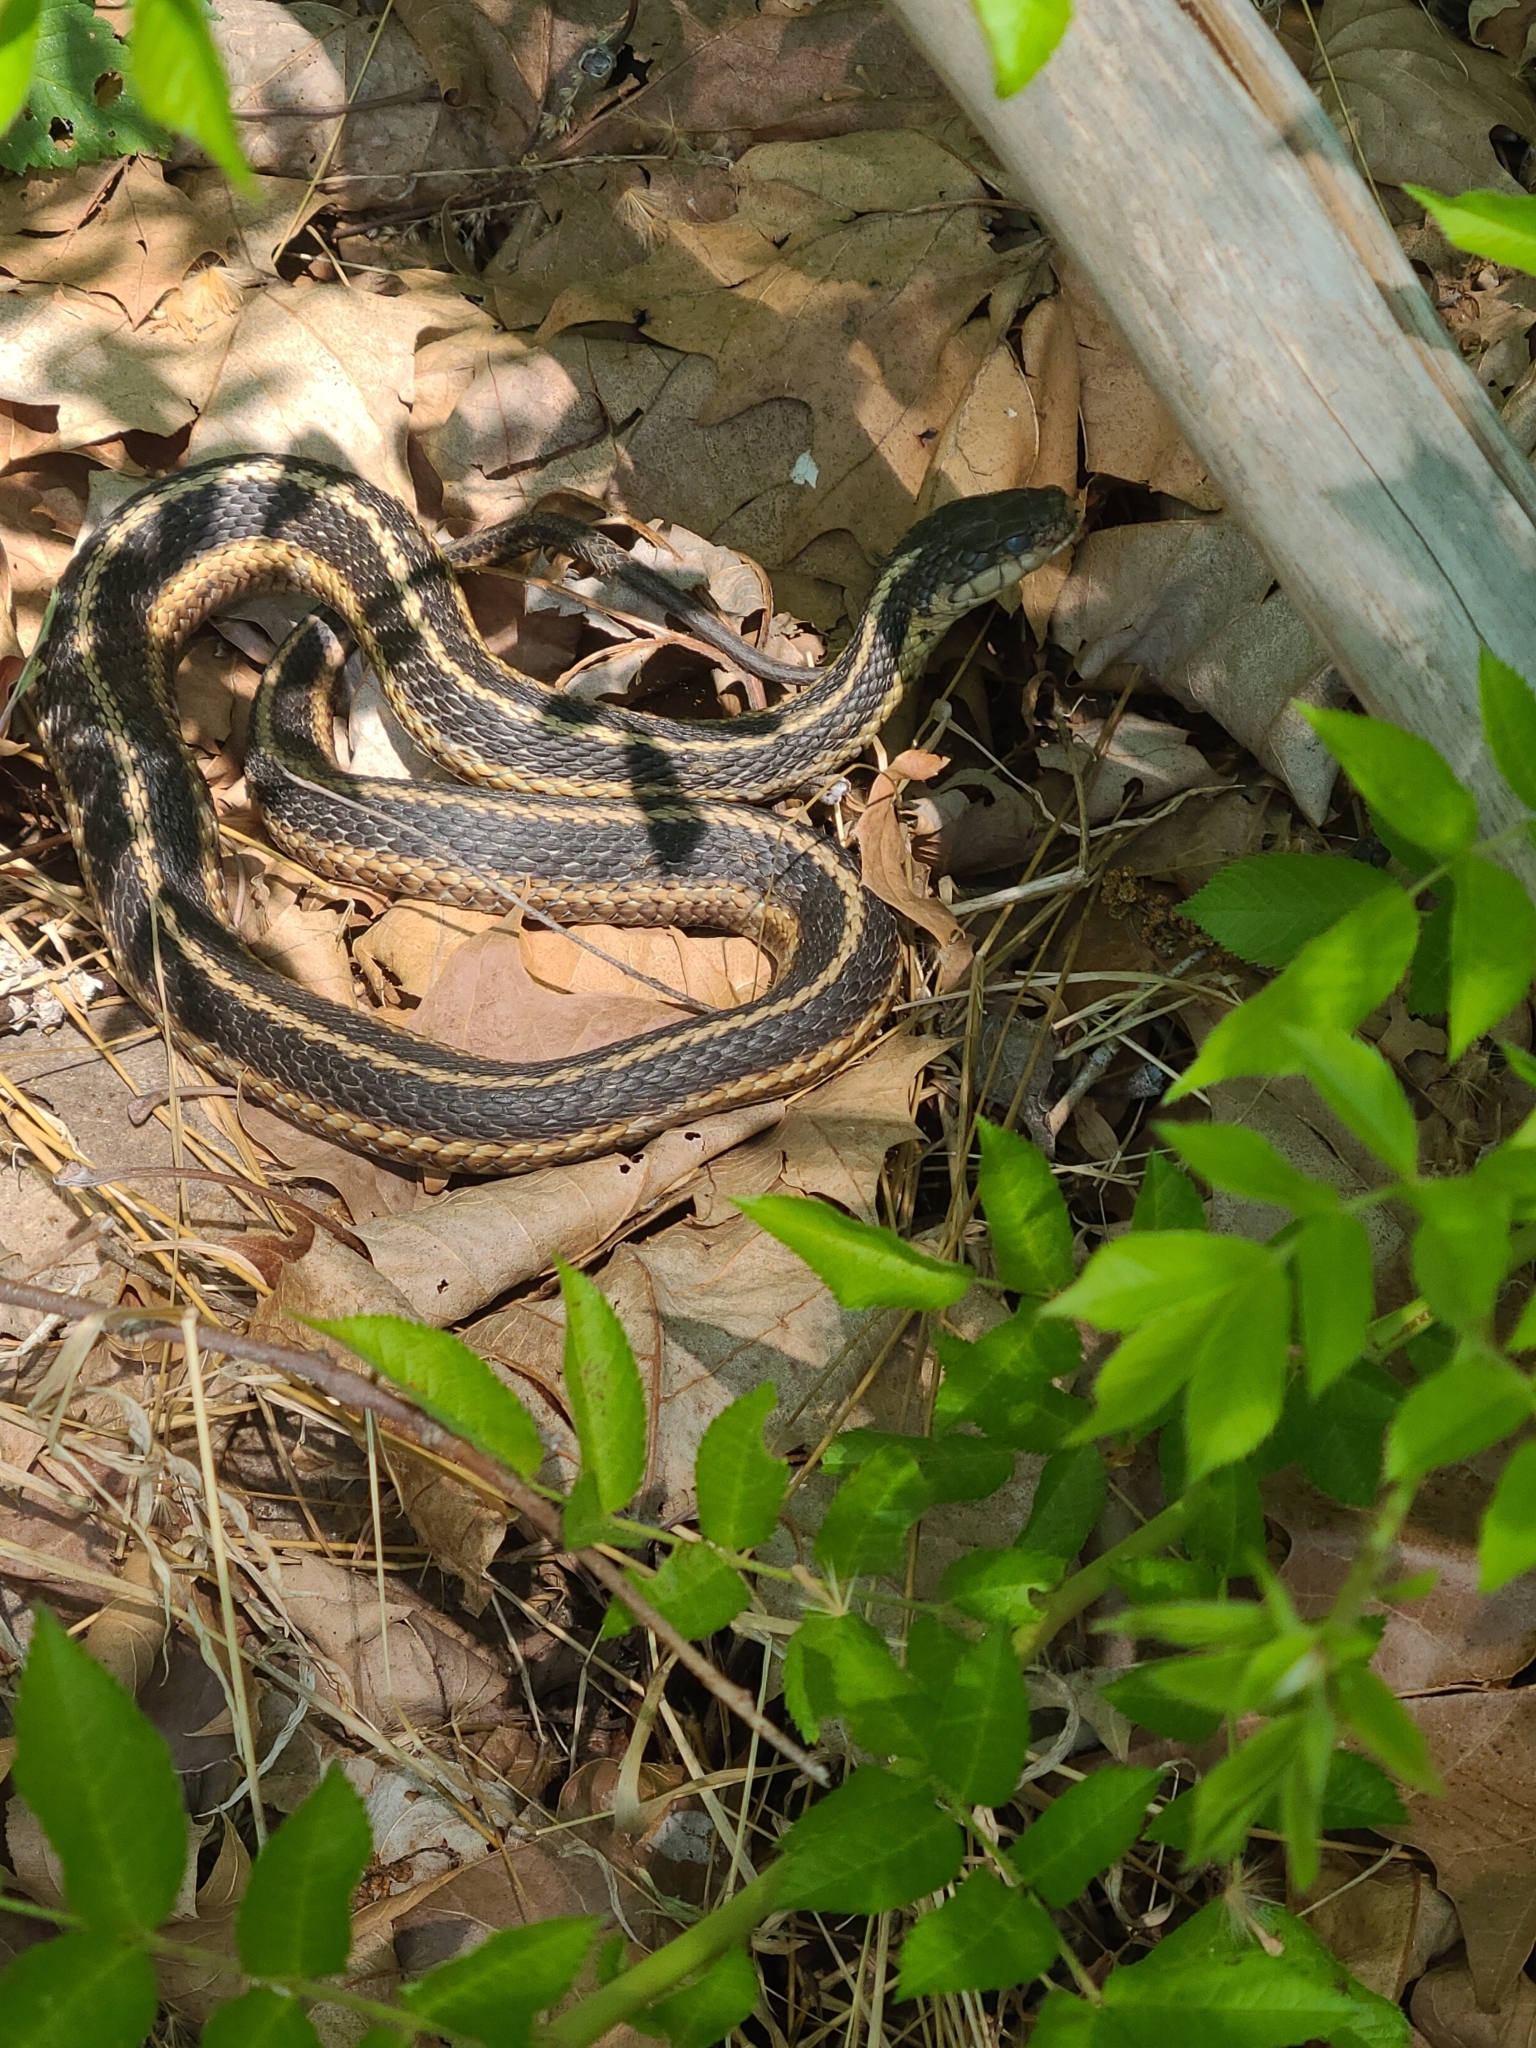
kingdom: Animalia
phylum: Chordata
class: Squamata
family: Colubridae
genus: Thamnophis
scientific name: Thamnophis sirtalis
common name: Common garter snake
